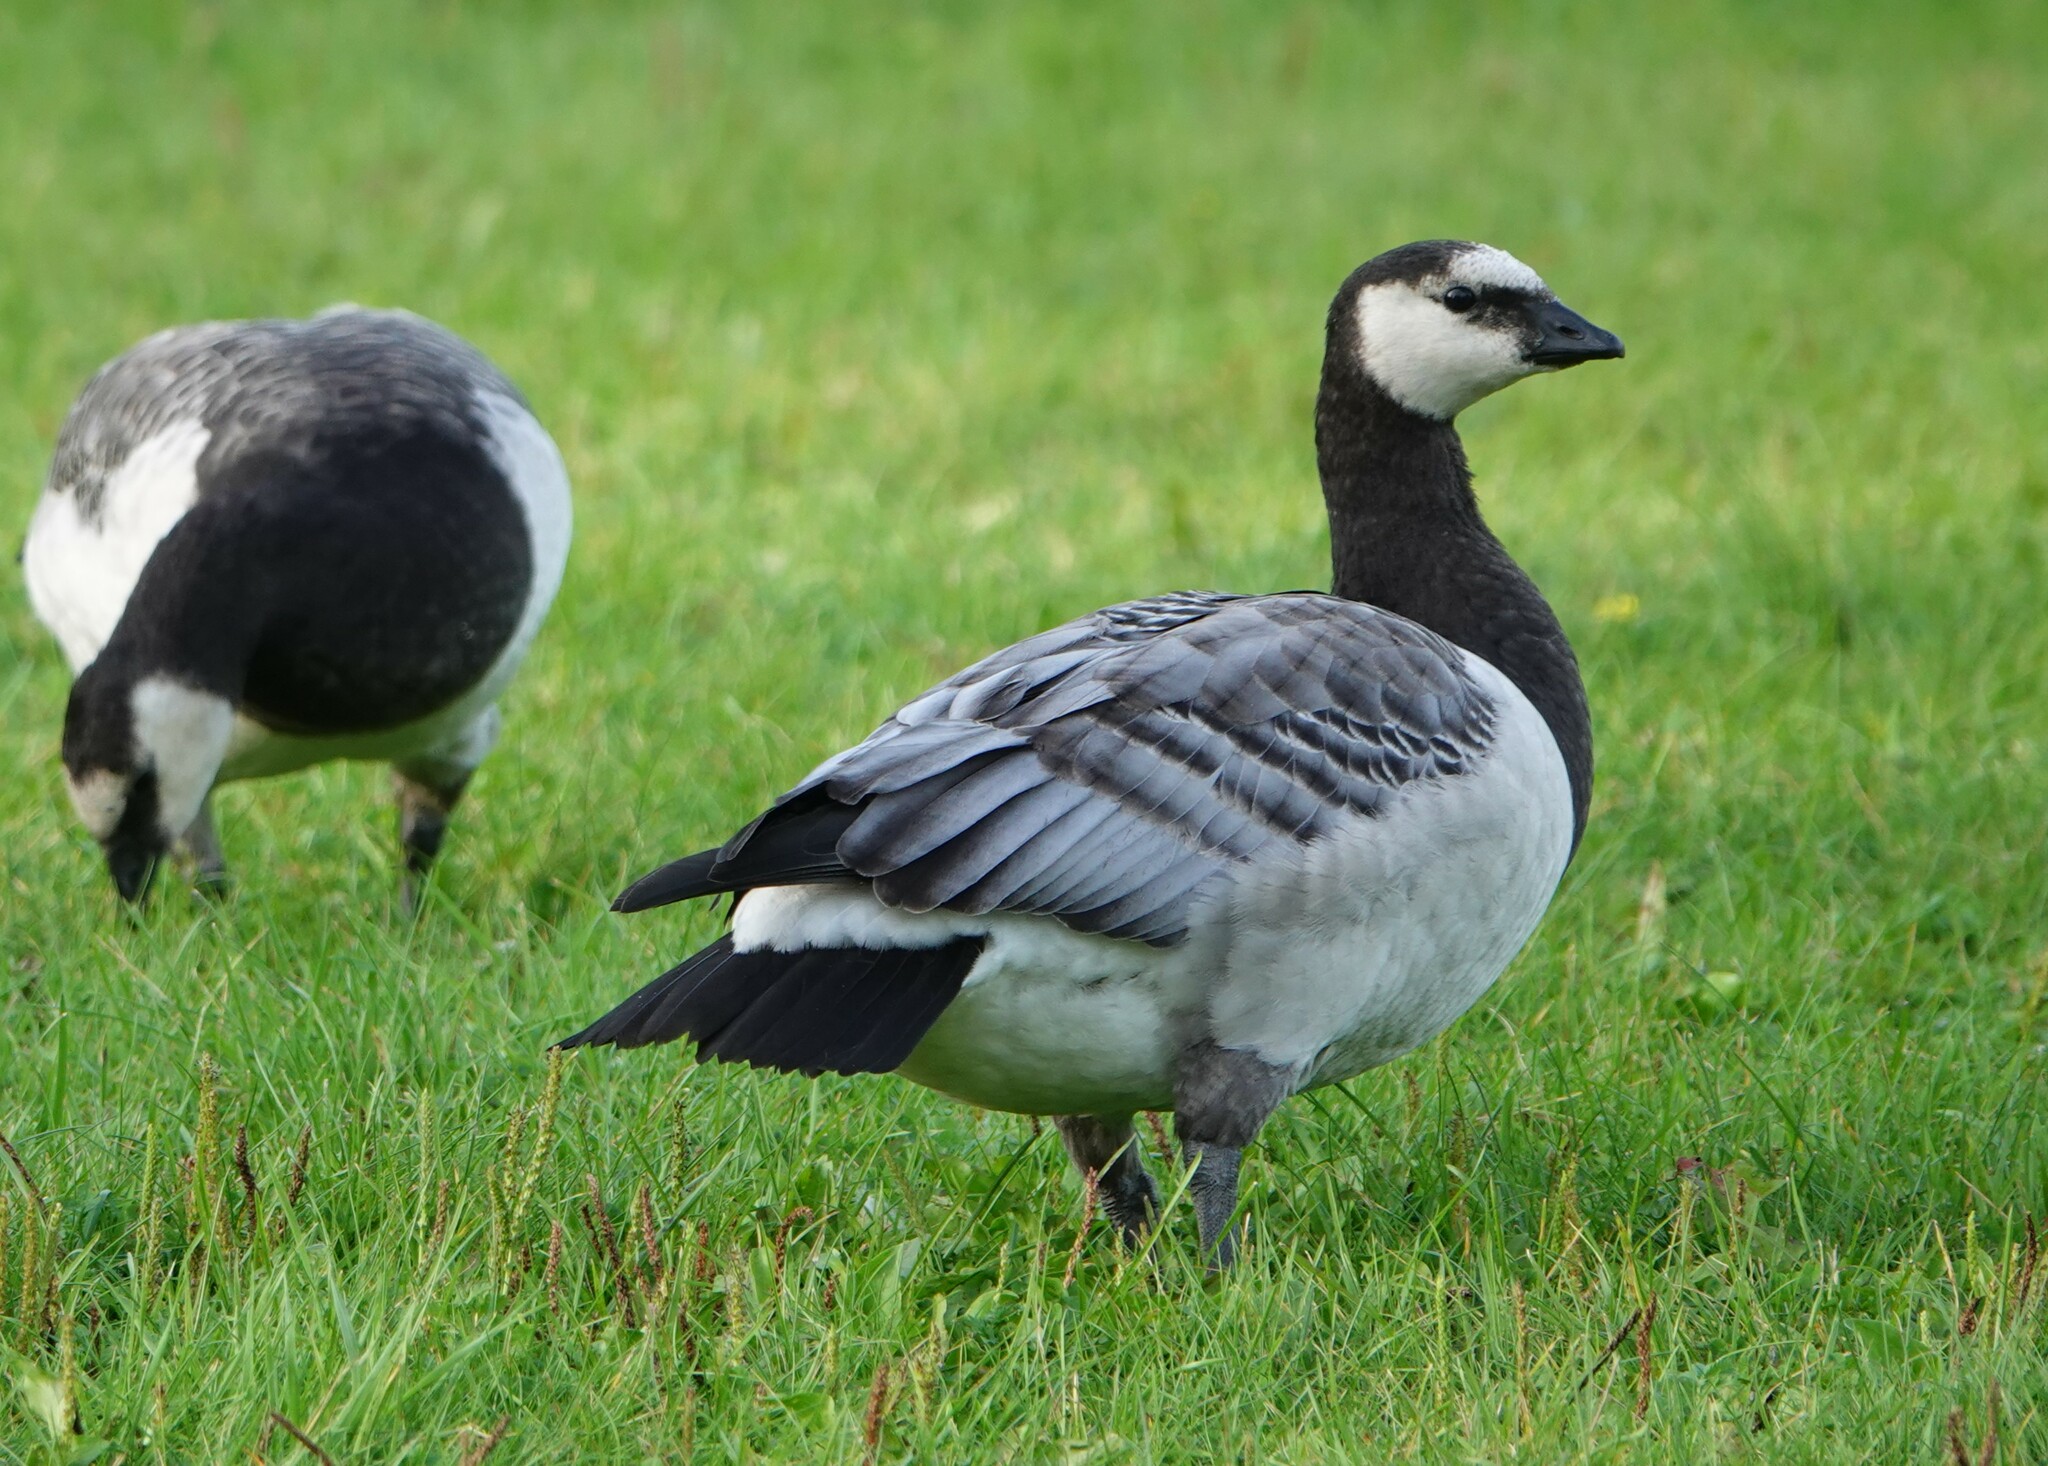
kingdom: Animalia
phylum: Chordata
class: Aves
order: Anseriformes
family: Anatidae
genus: Branta
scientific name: Branta leucopsis
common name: Barnacle goose
